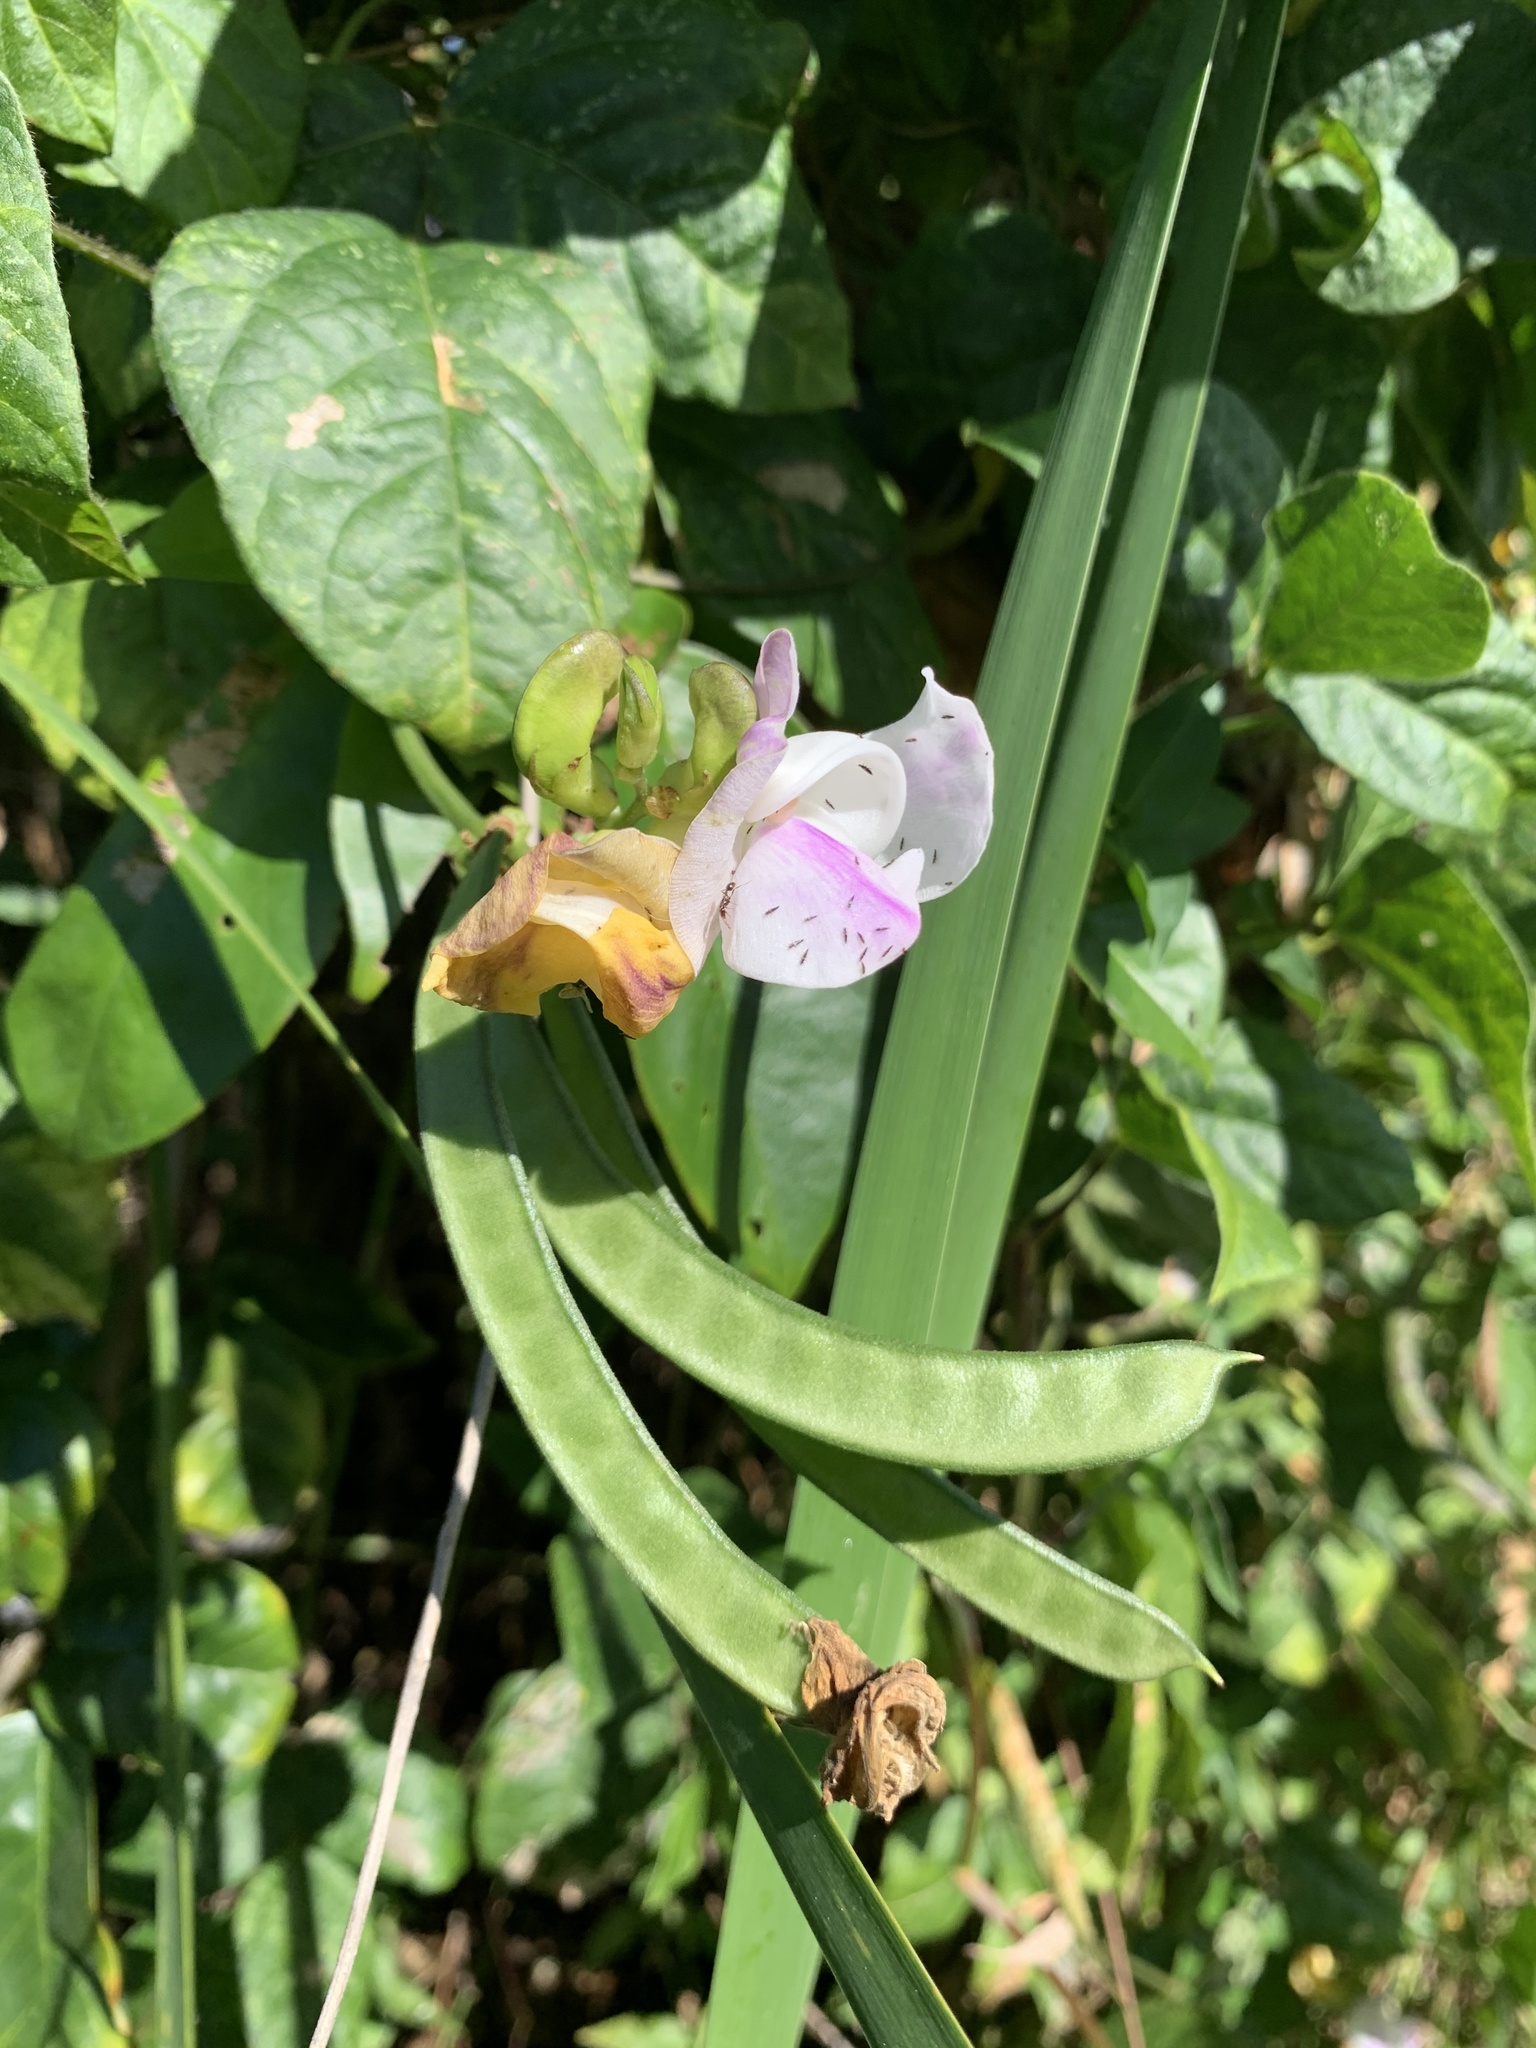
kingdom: Plantae
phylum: Tracheophyta
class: Magnoliopsida
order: Fabales
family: Fabaceae
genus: Leptospron
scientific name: Leptospron adenanthum
